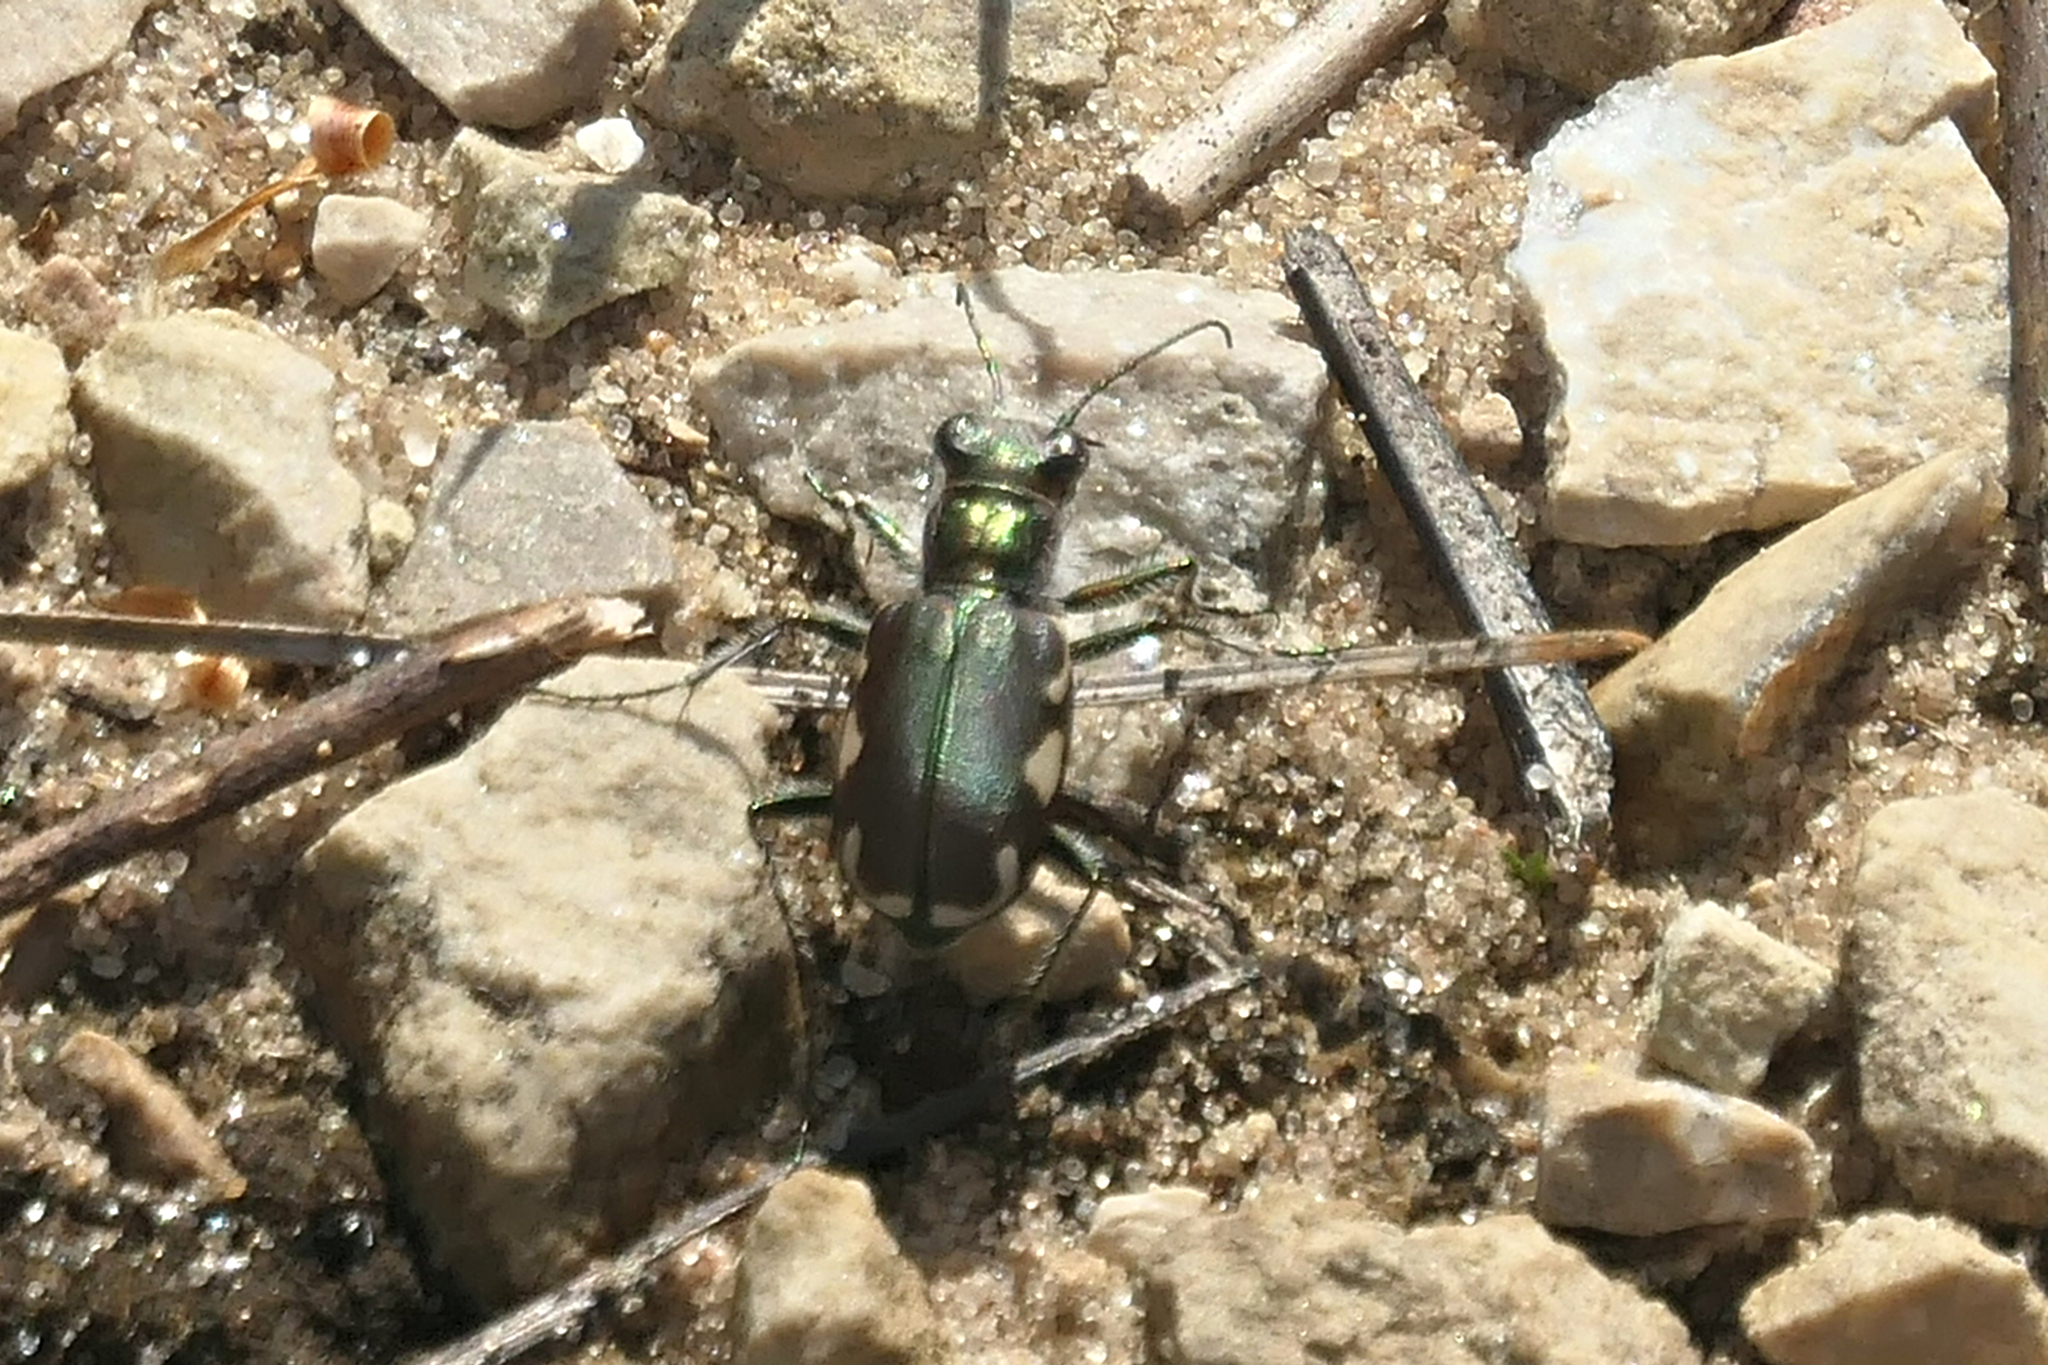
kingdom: Animalia
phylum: Arthropoda
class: Insecta
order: Coleoptera
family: Carabidae
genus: Cicindela
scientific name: Cicindela scutellaris
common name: Festive tiger beetle
